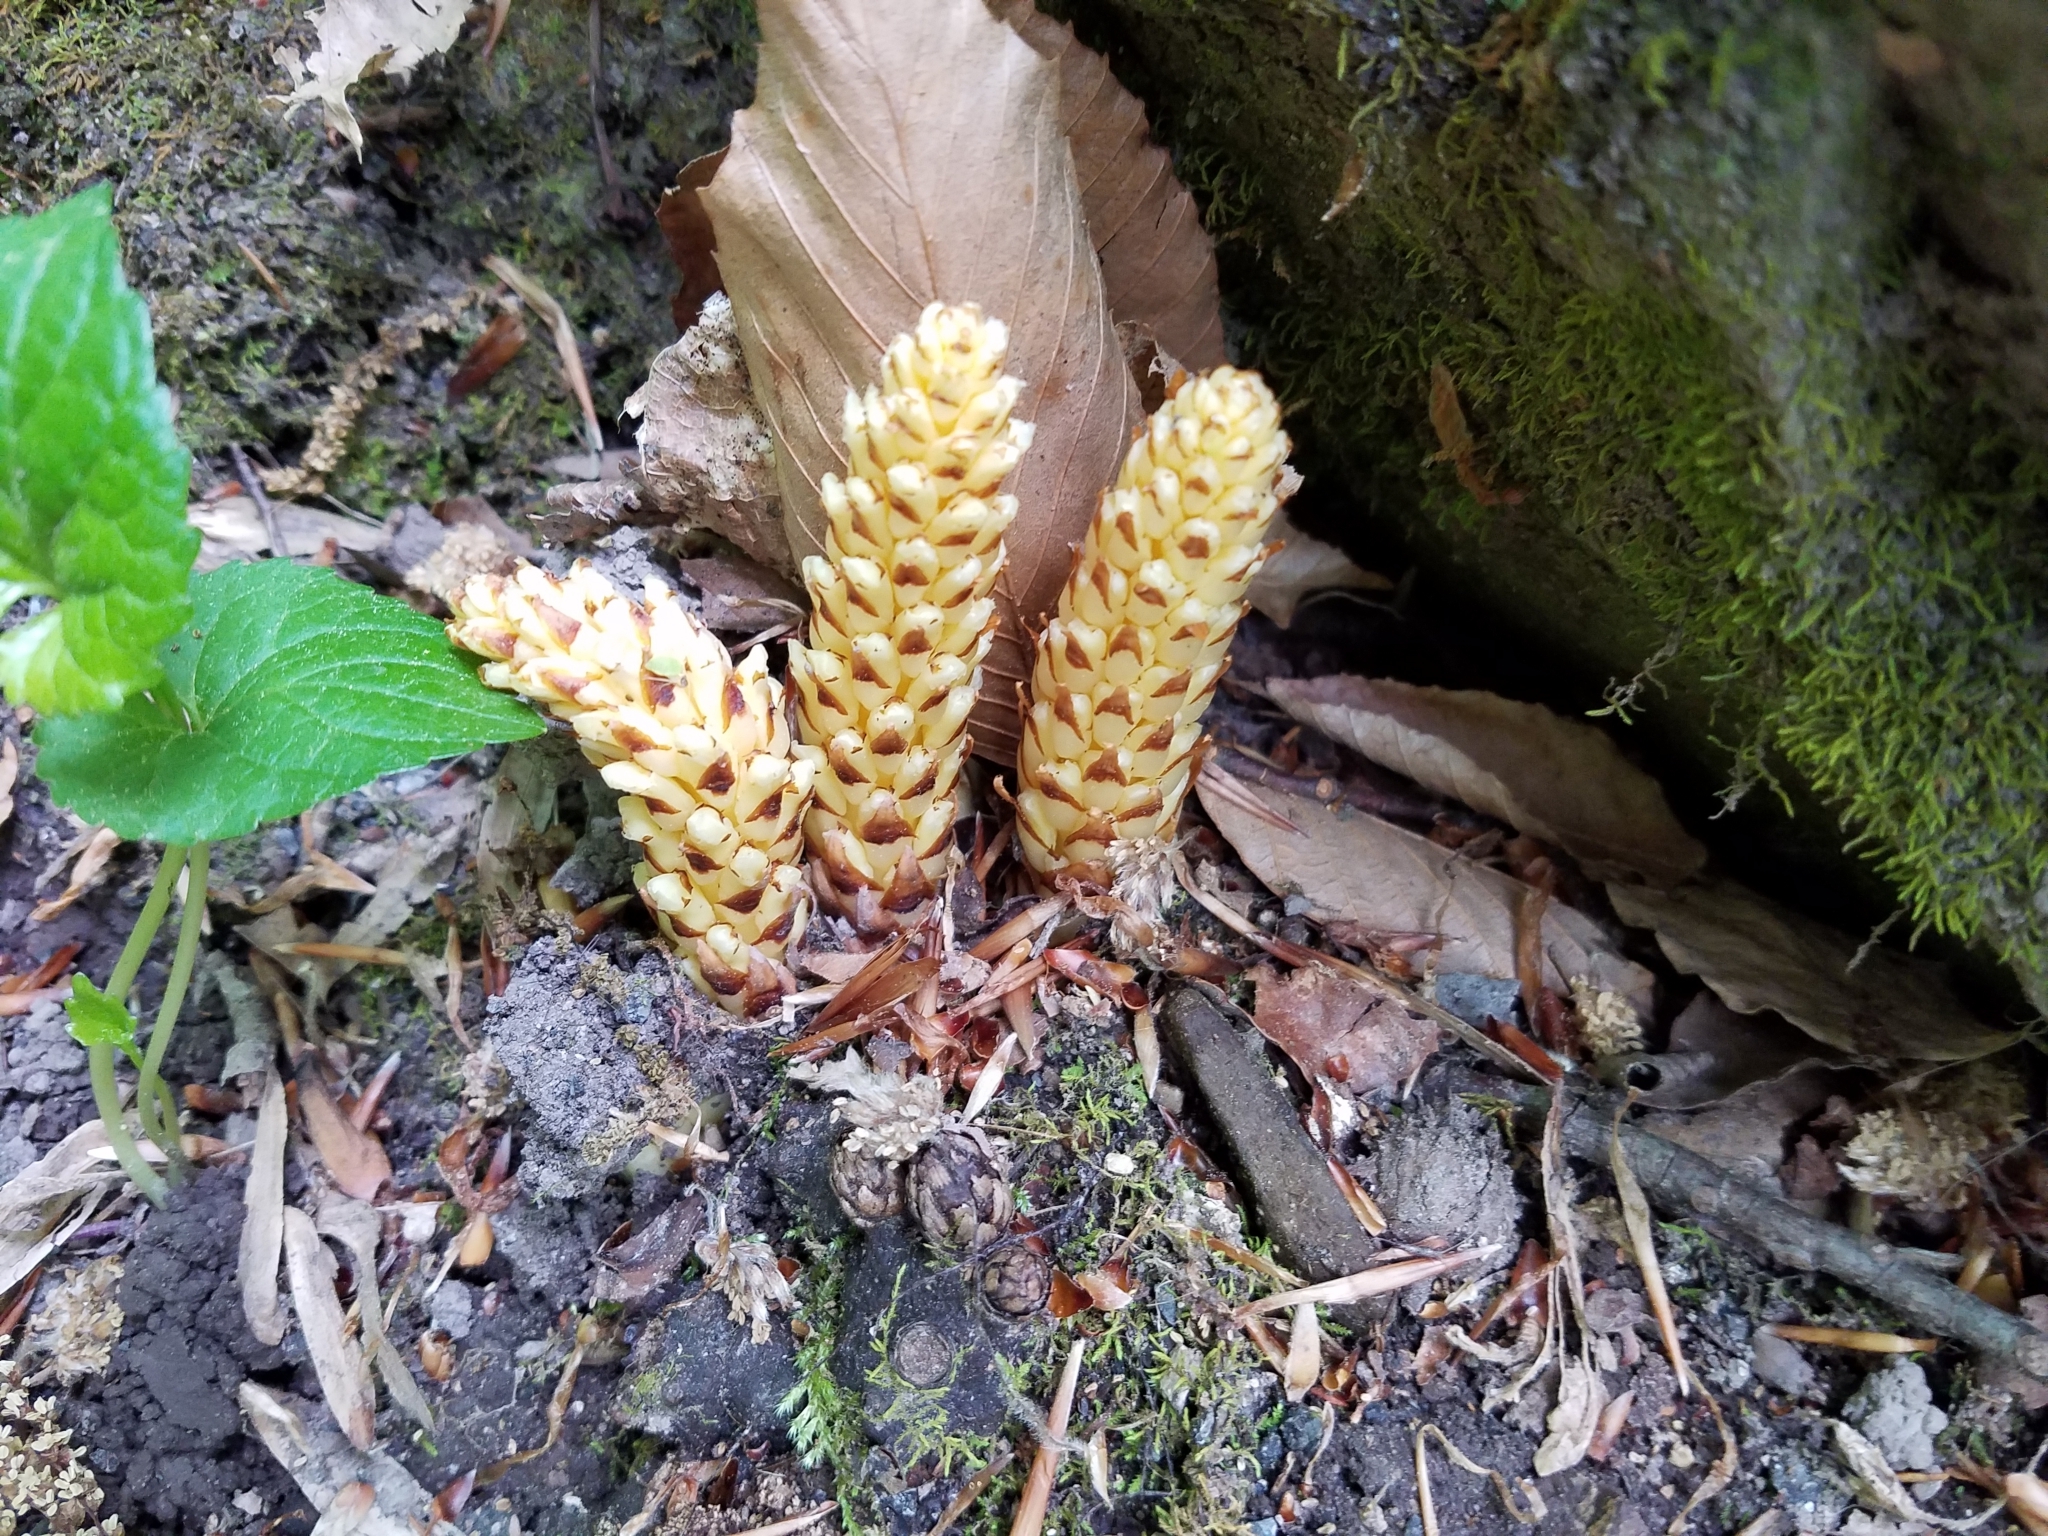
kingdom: Plantae
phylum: Tracheophyta
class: Magnoliopsida
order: Lamiales
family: Orobanchaceae
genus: Conopholis
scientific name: Conopholis americana
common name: American cancer-root
